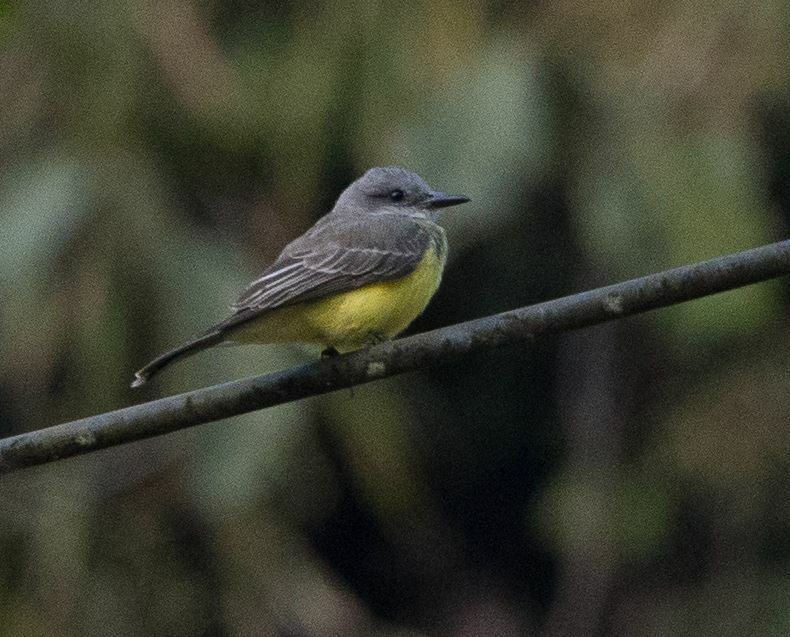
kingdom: Animalia
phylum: Chordata
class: Aves
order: Passeriformes
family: Tyrannidae
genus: Tyrannus
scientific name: Tyrannus melancholicus
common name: Tropical kingbird
